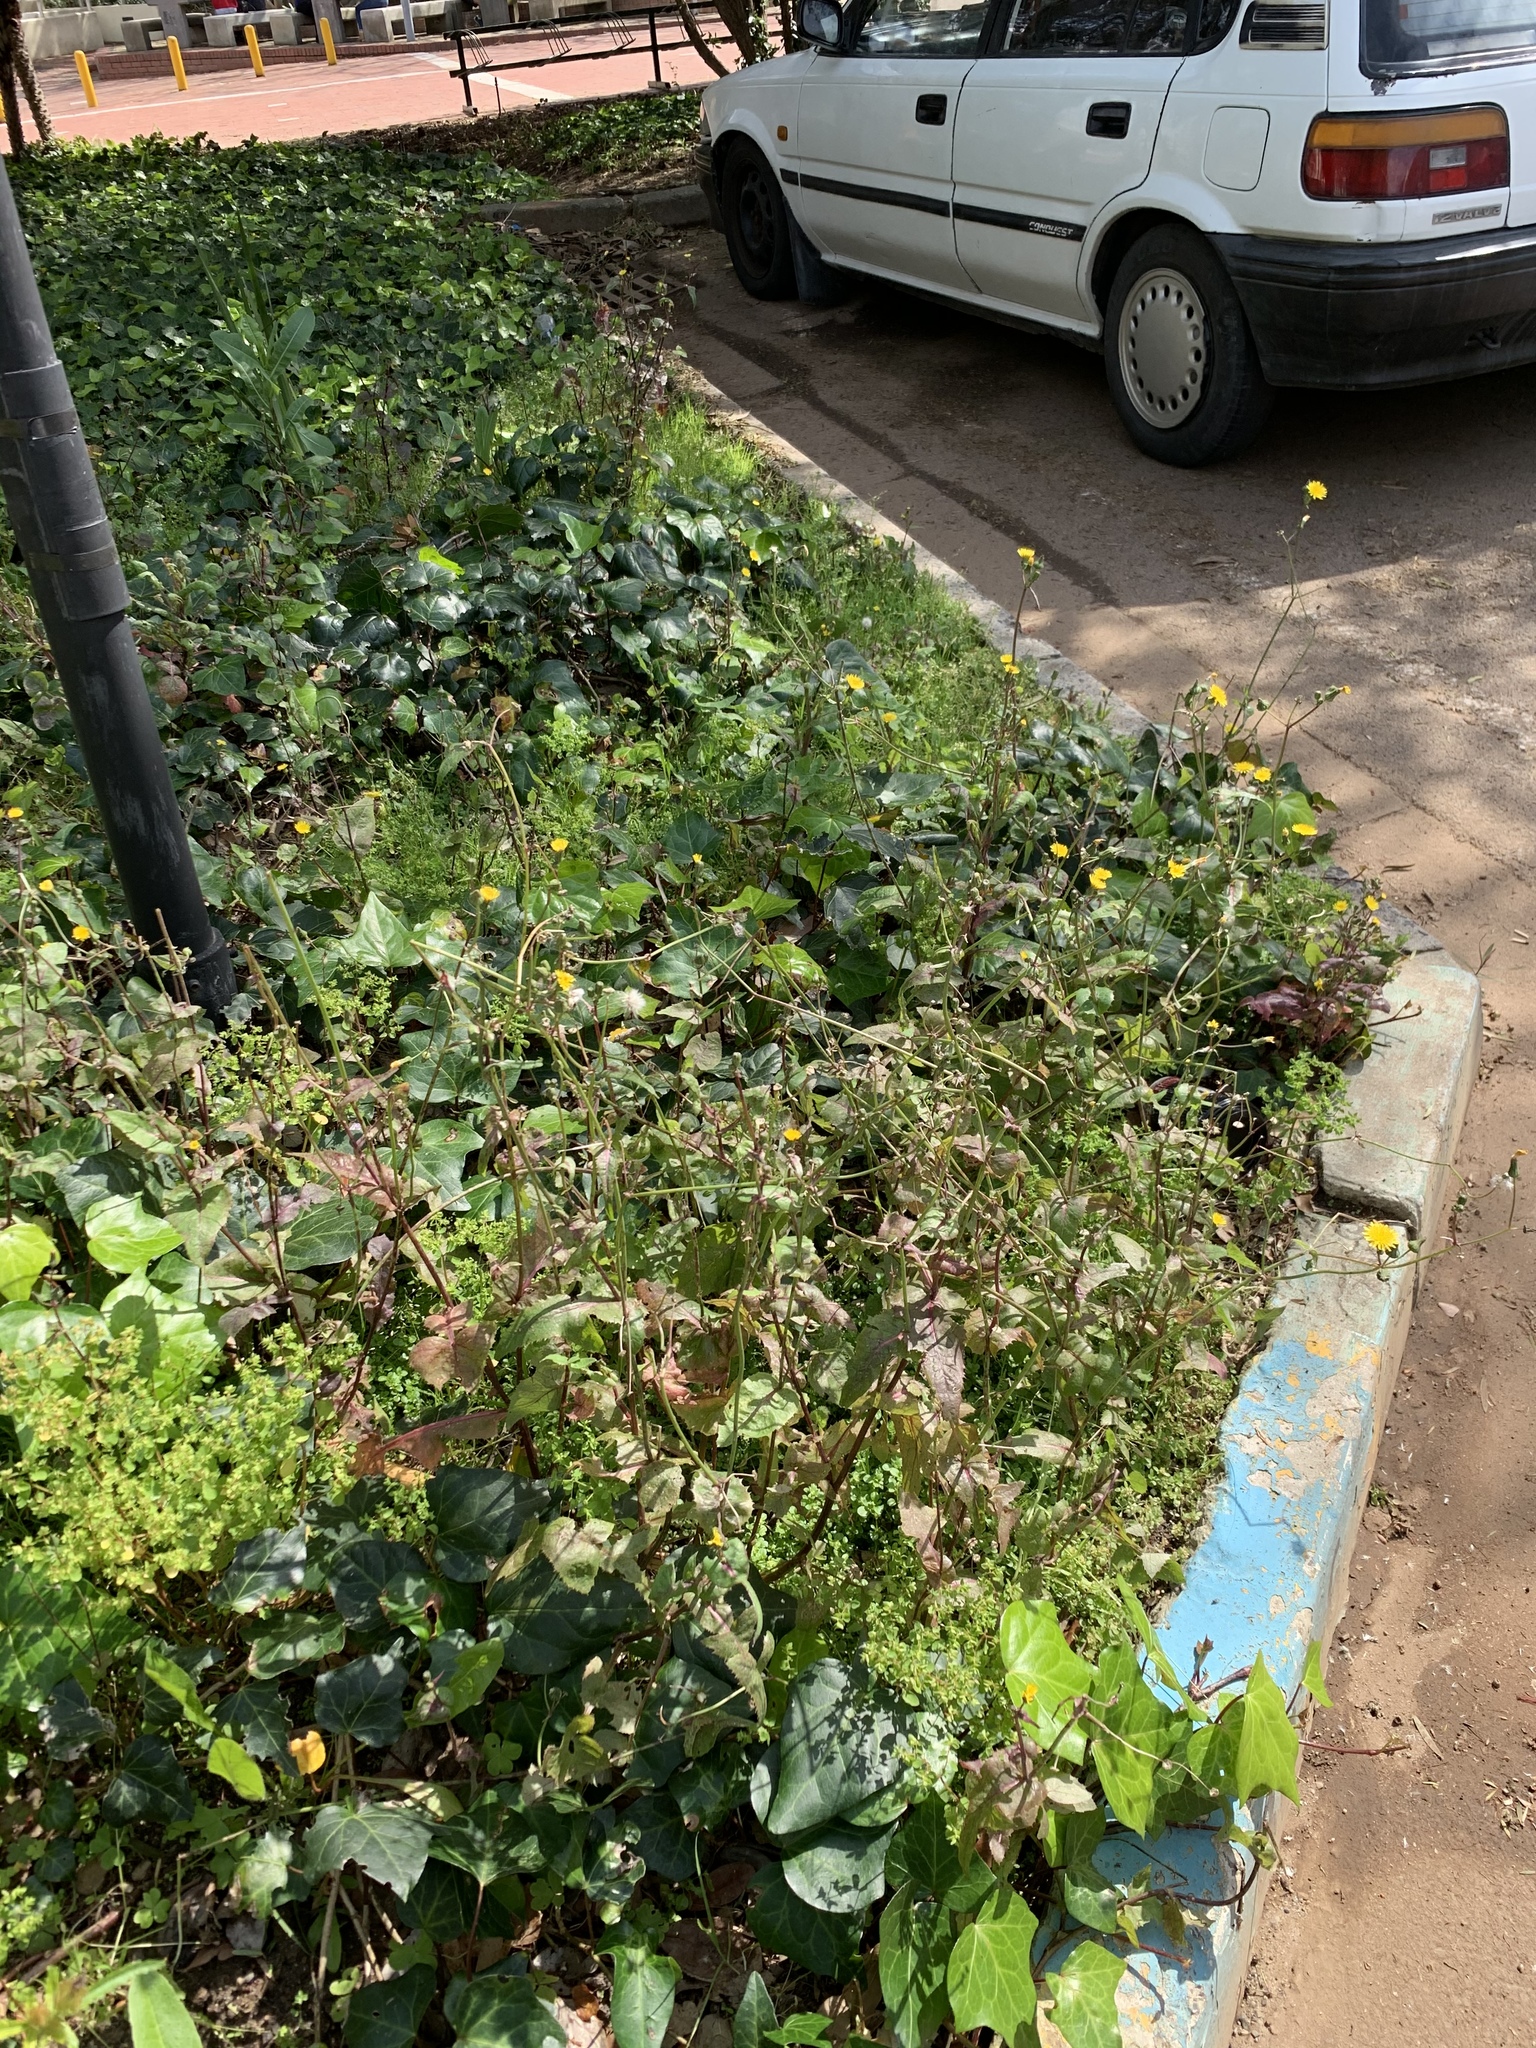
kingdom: Plantae
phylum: Tracheophyta
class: Magnoliopsida
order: Asterales
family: Asteraceae
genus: Sonchus
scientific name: Sonchus oleraceus
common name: Common sowthistle
